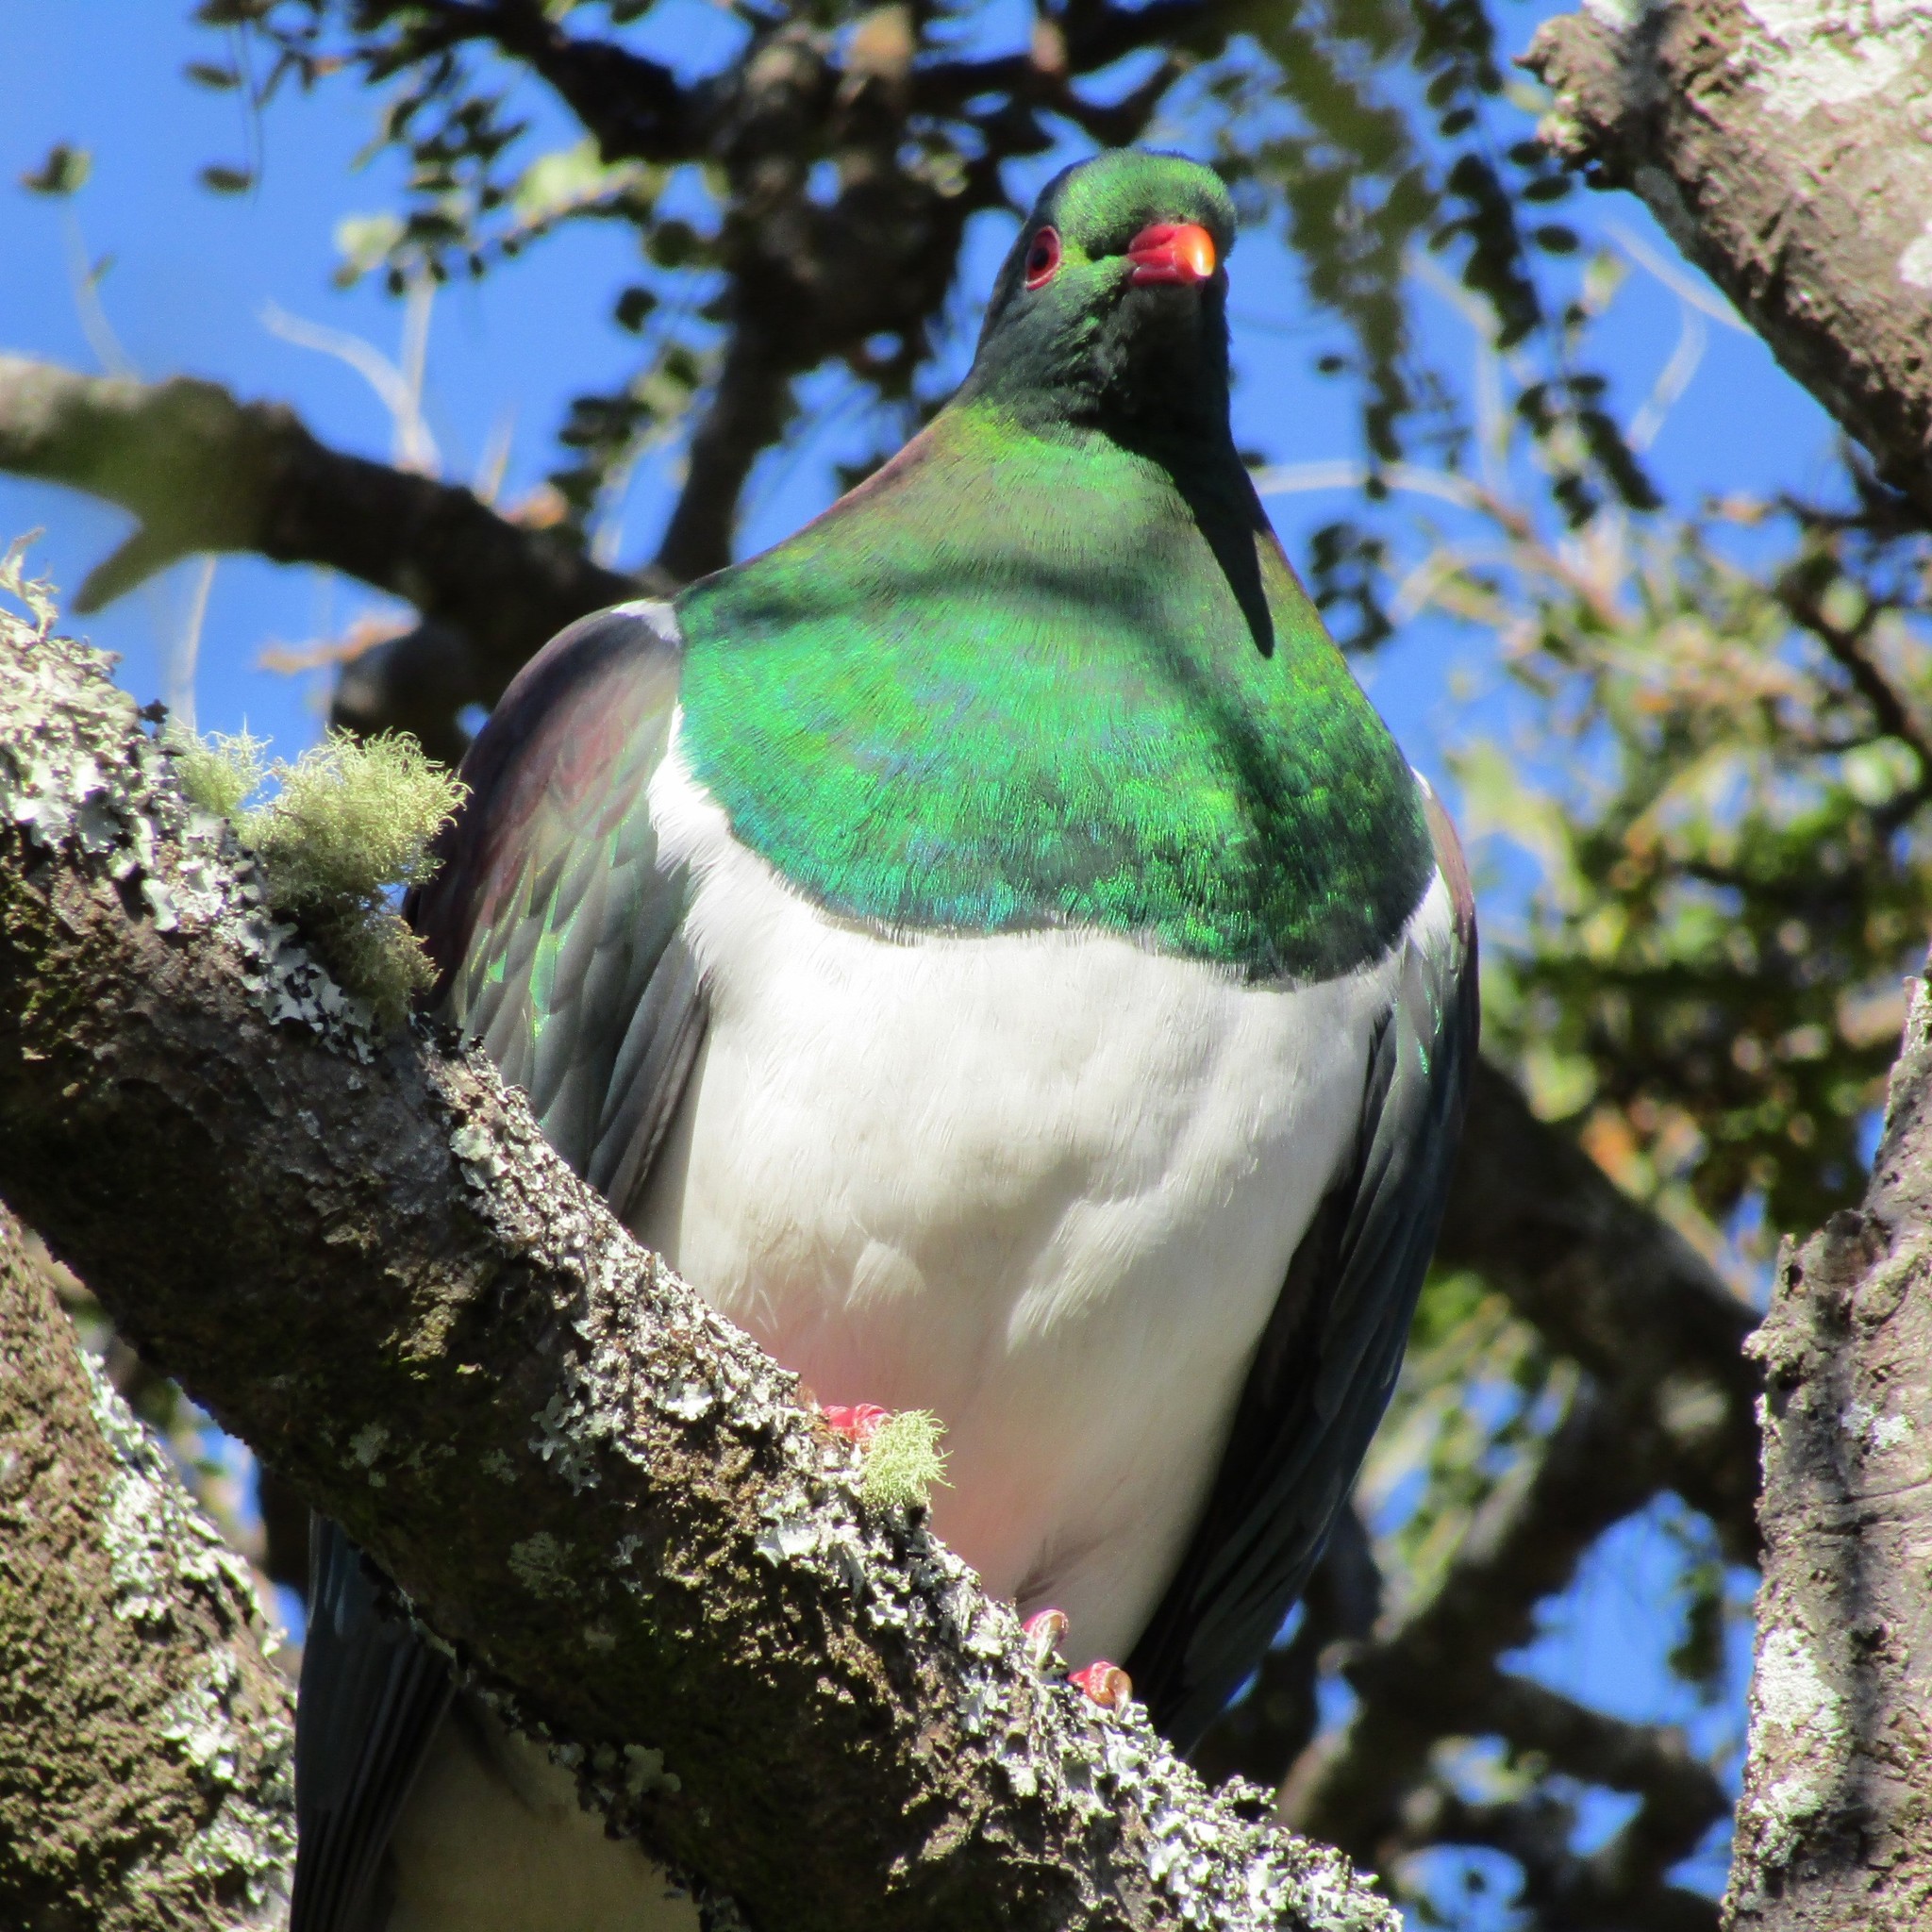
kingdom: Animalia
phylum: Chordata
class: Aves
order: Columbiformes
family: Columbidae
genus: Hemiphaga
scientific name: Hemiphaga novaeseelandiae
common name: New zealand pigeon
